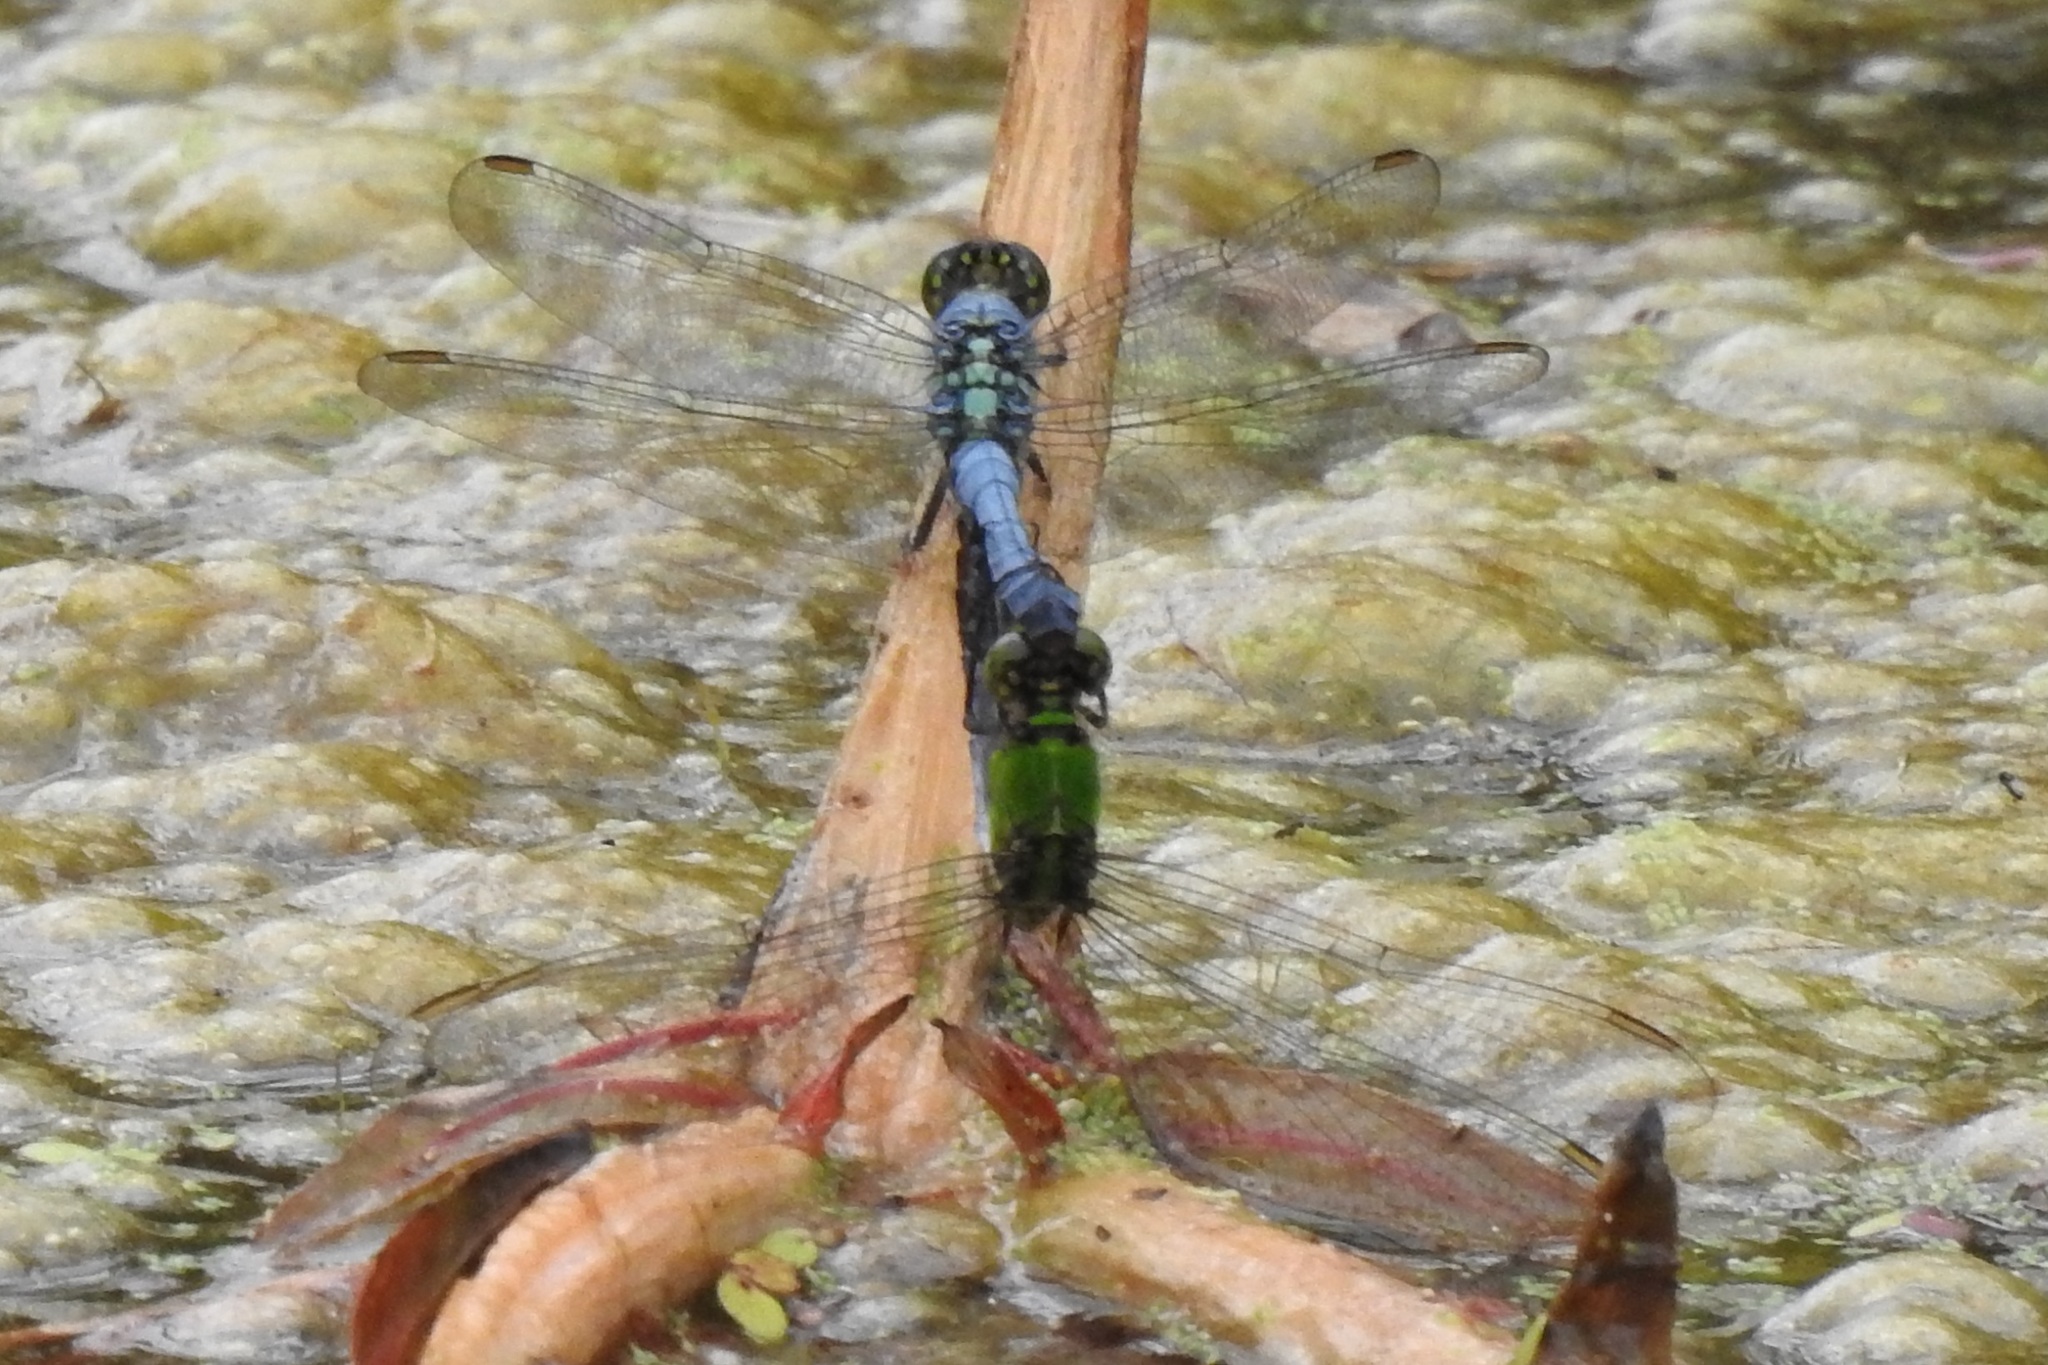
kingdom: Animalia
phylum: Arthropoda
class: Insecta
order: Odonata
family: Libellulidae
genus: Erythemis
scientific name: Erythemis simplicicollis
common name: Eastern pondhawk
